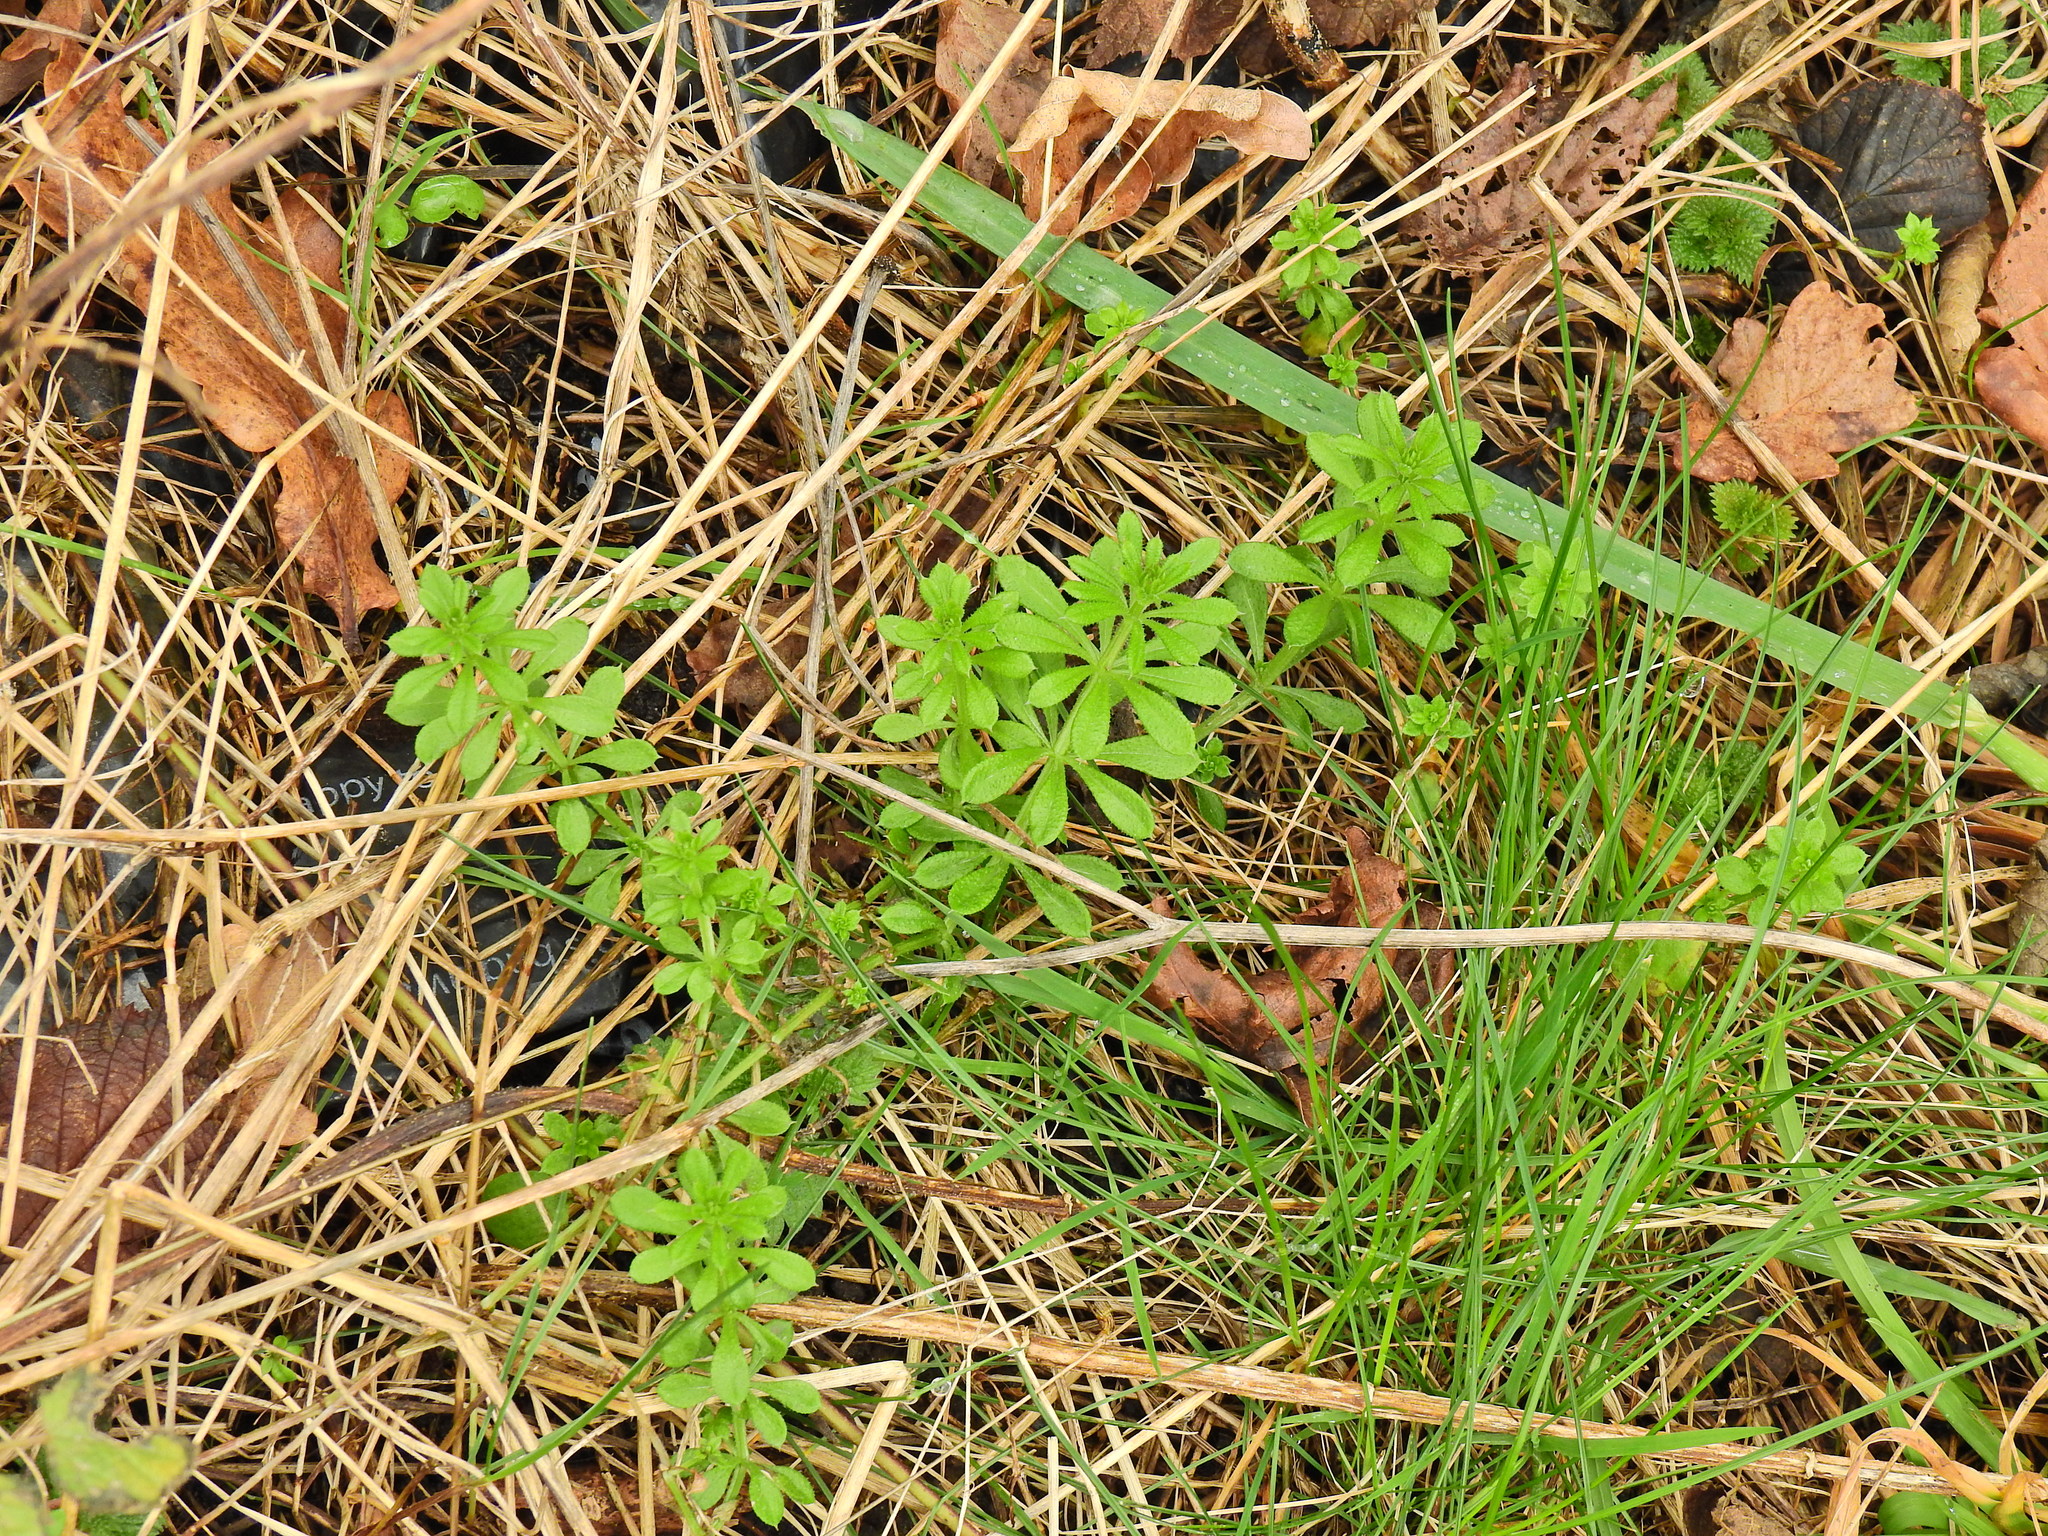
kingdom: Plantae
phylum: Tracheophyta
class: Magnoliopsida
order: Gentianales
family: Rubiaceae
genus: Galium
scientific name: Galium aparine
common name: Cleavers
